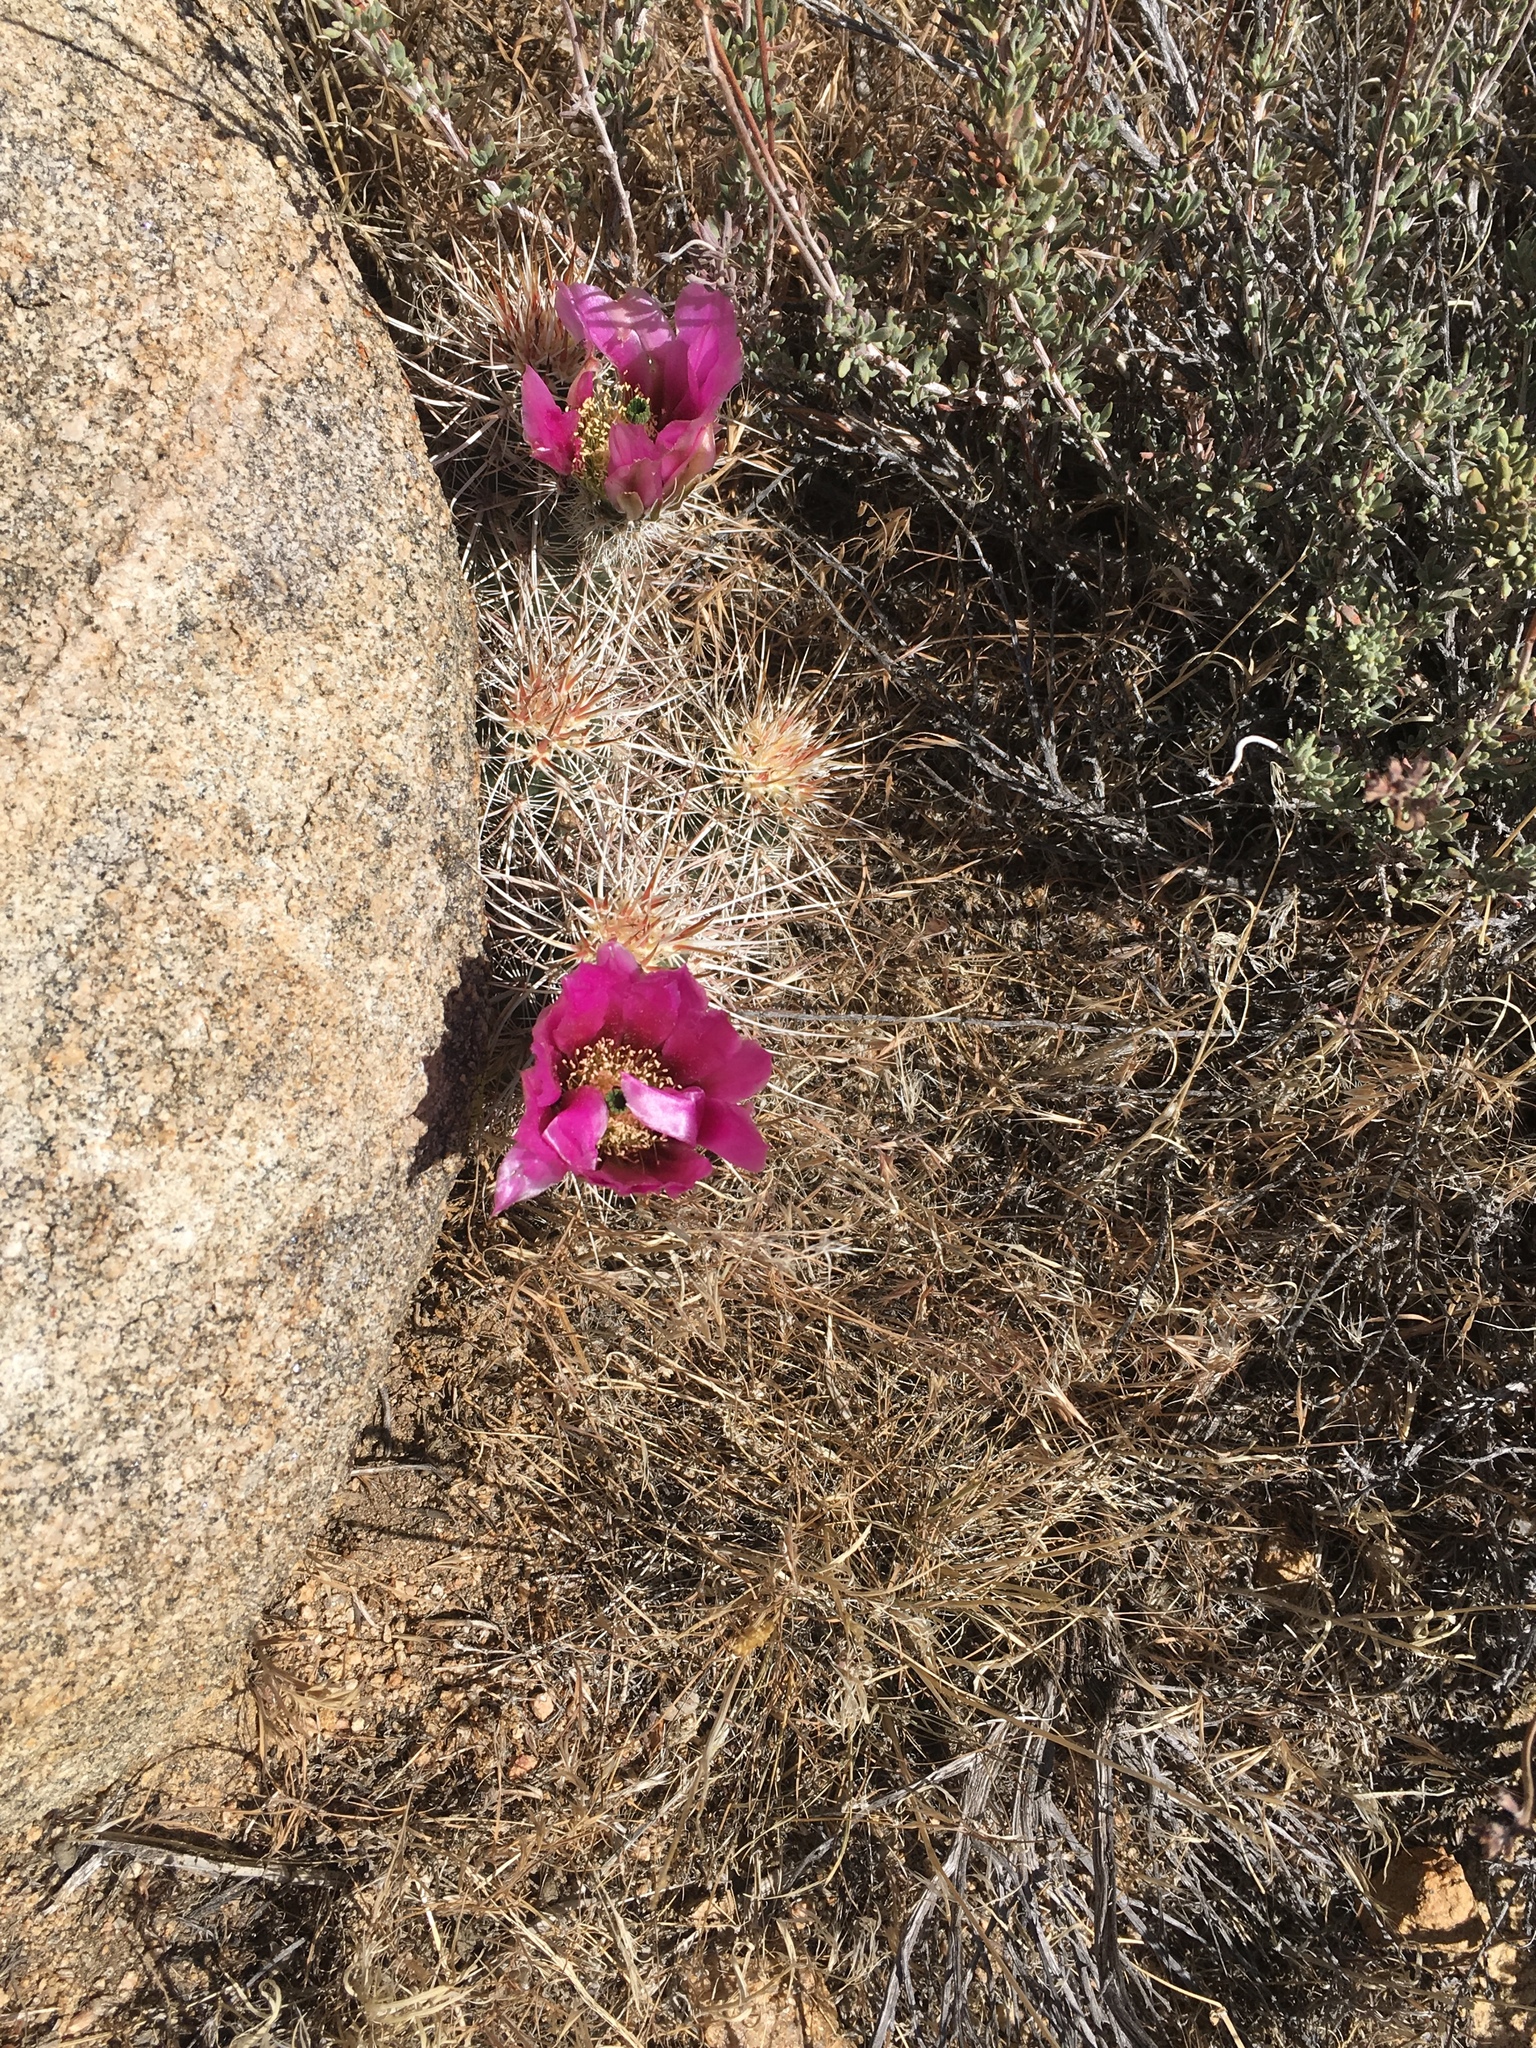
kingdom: Plantae
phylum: Tracheophyta
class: Magnoliopsida
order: Caryophyllales
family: Cactaceae
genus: Echinocereus
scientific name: Echinocereus engelmannii
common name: Engelmann's hedgehog cactus
